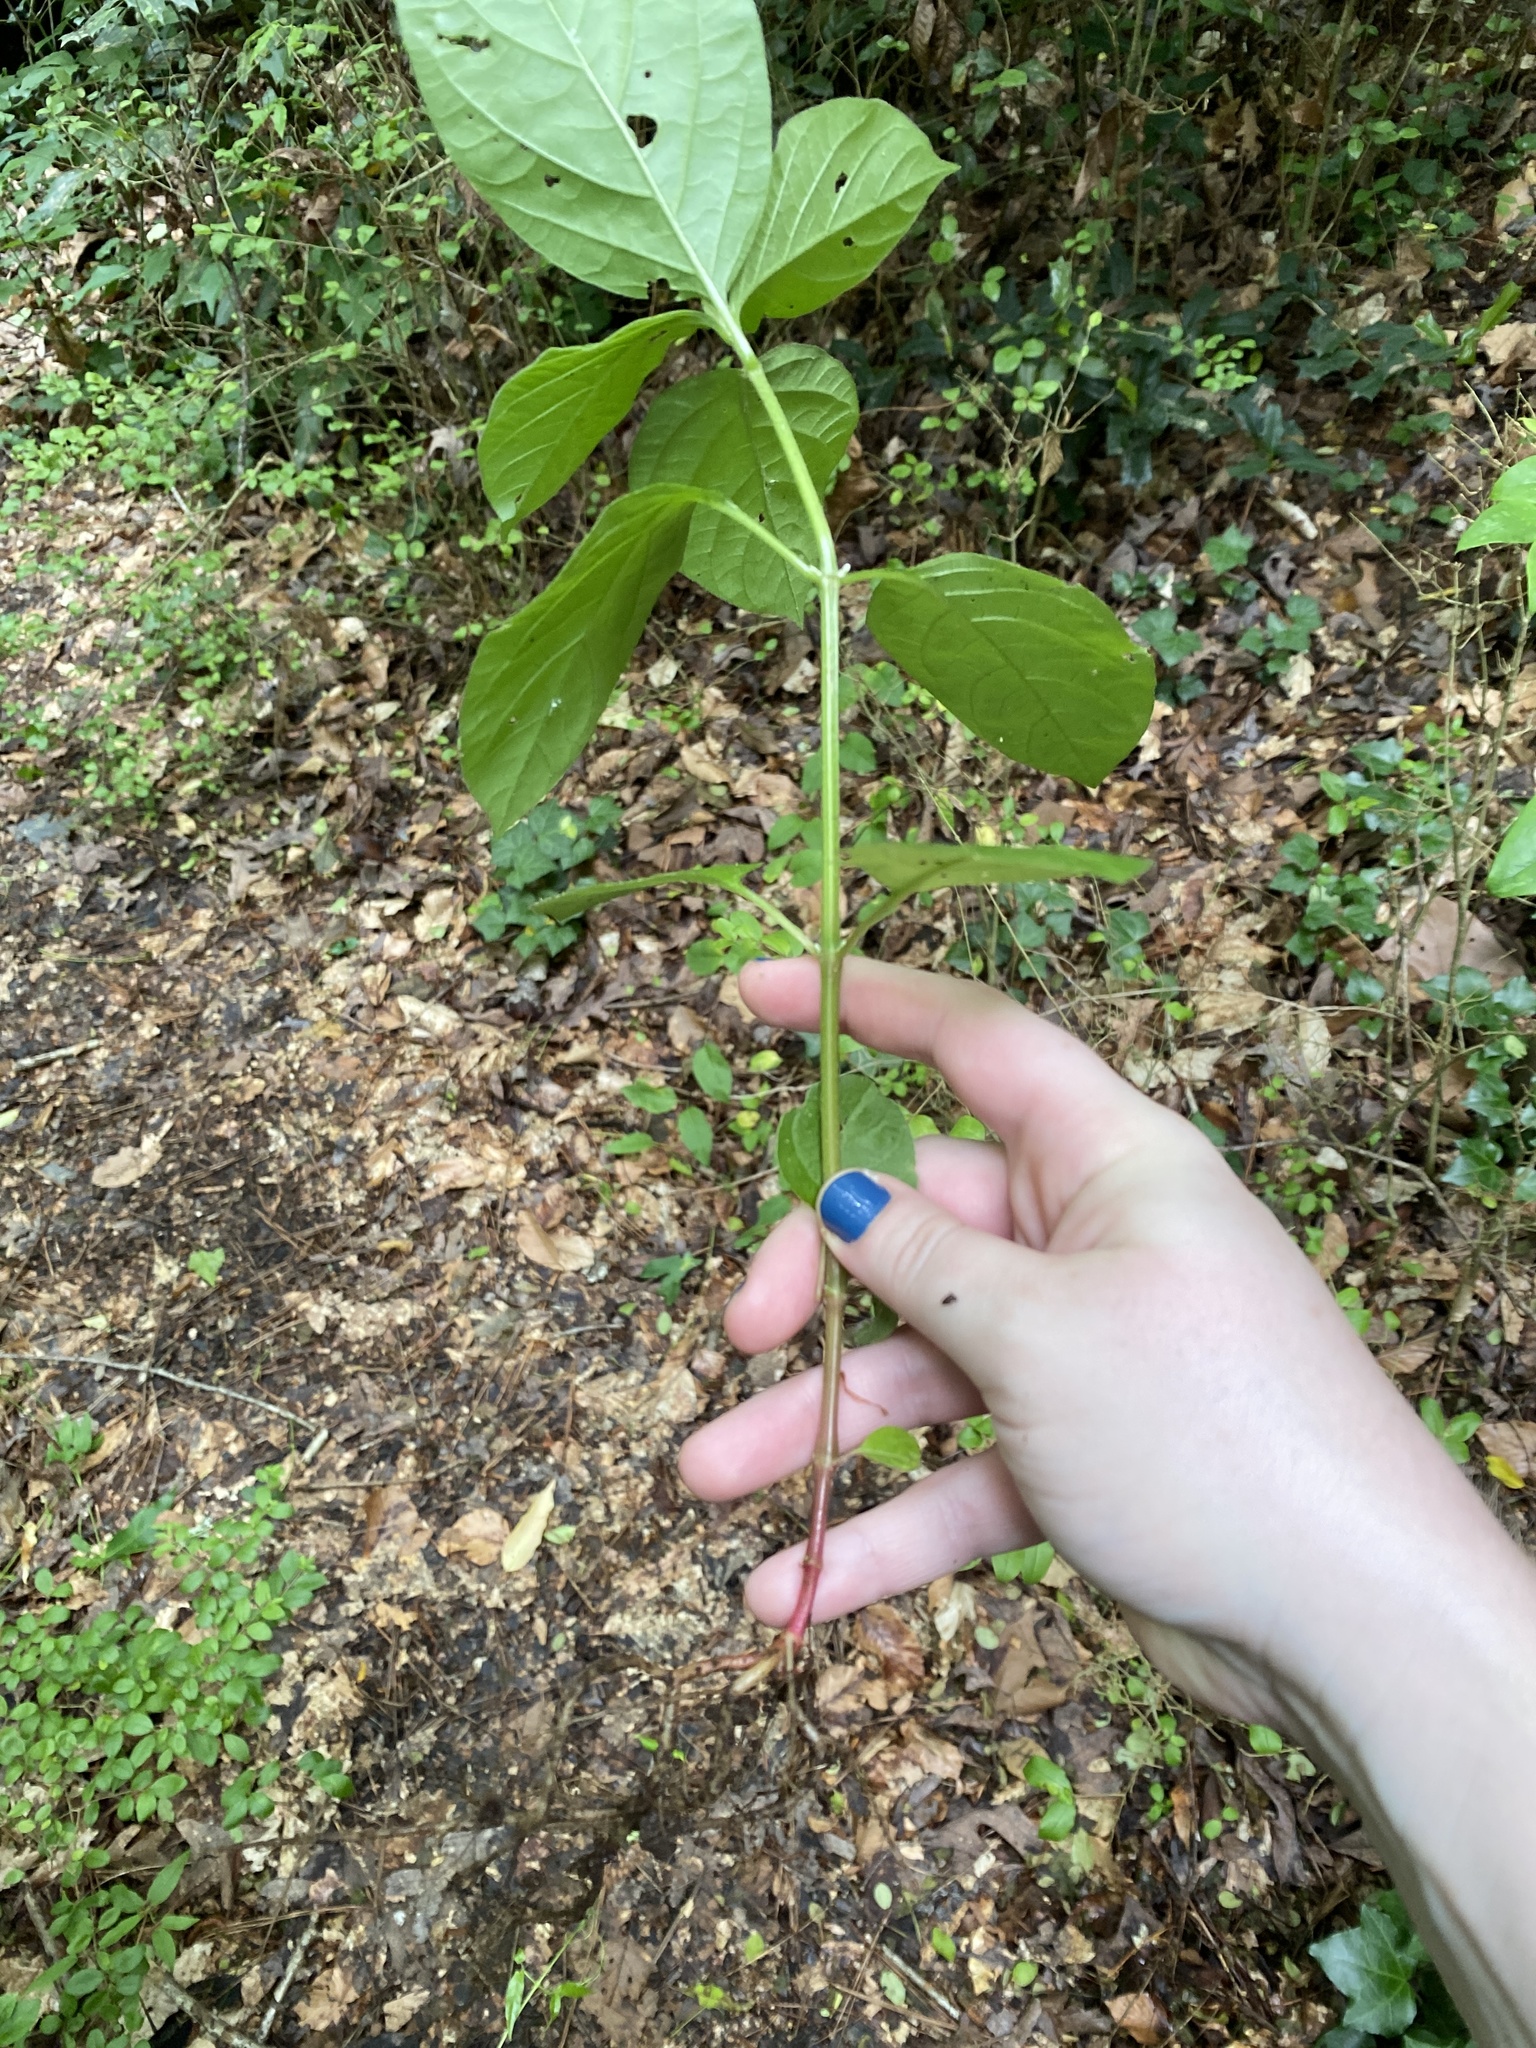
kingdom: Plantae
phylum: Tracheophyta
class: Magnoliopsida
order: Caryophyllales
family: Amaranthaceae
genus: Achyranthes
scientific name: Achyranthes bidentata
